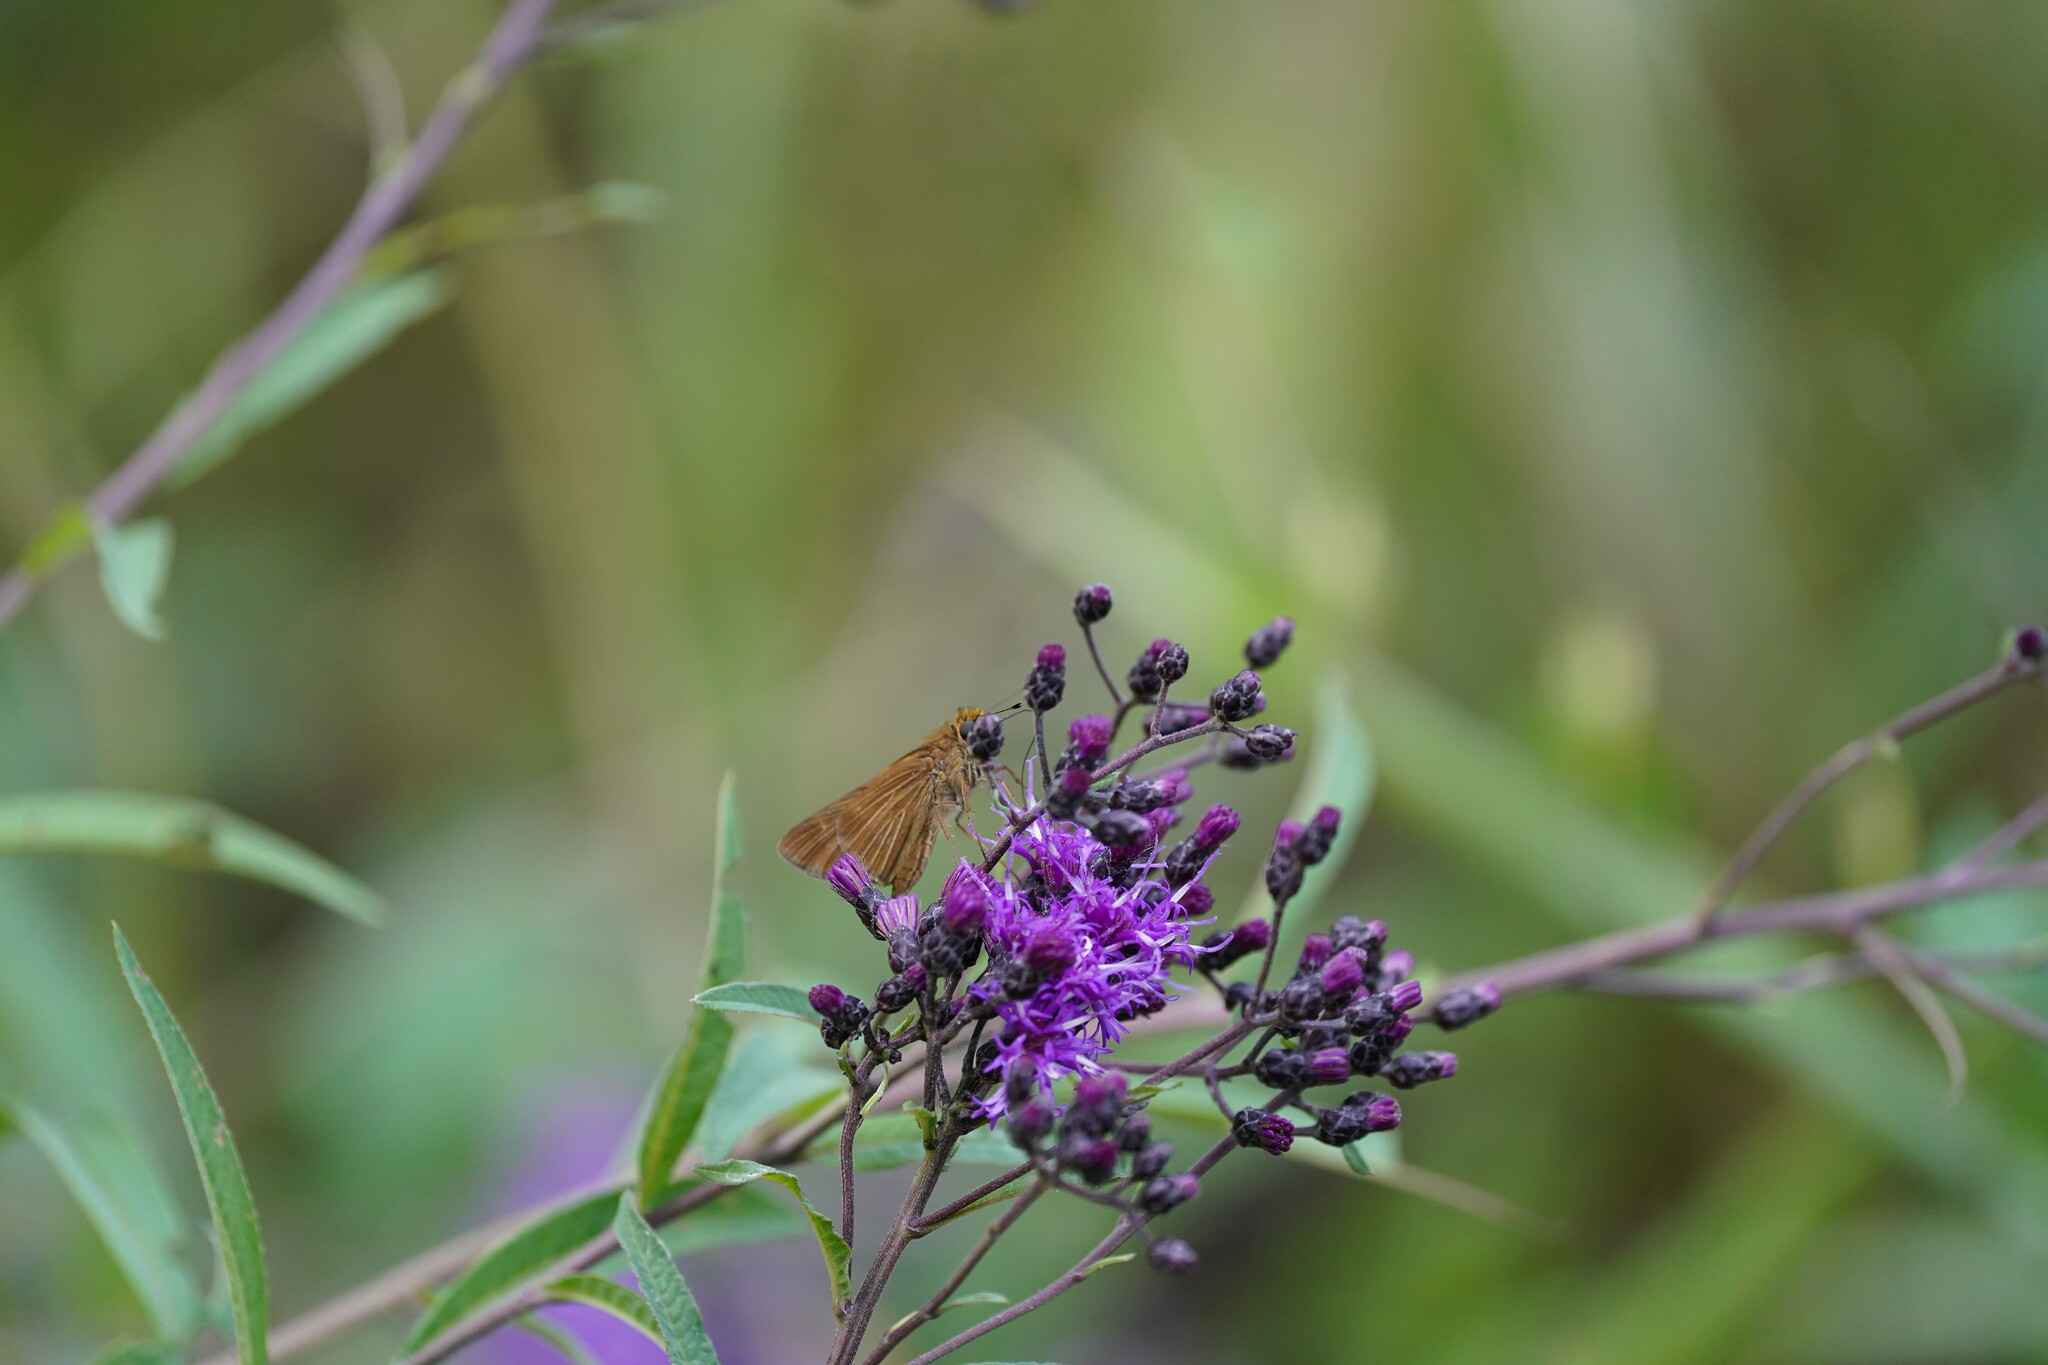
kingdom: Animalia
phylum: Arthropoda
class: Insecta
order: Lepidoptera
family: Hesperiidae
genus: Panoquina
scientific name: Panoquina ocola
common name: Ocola skipper
